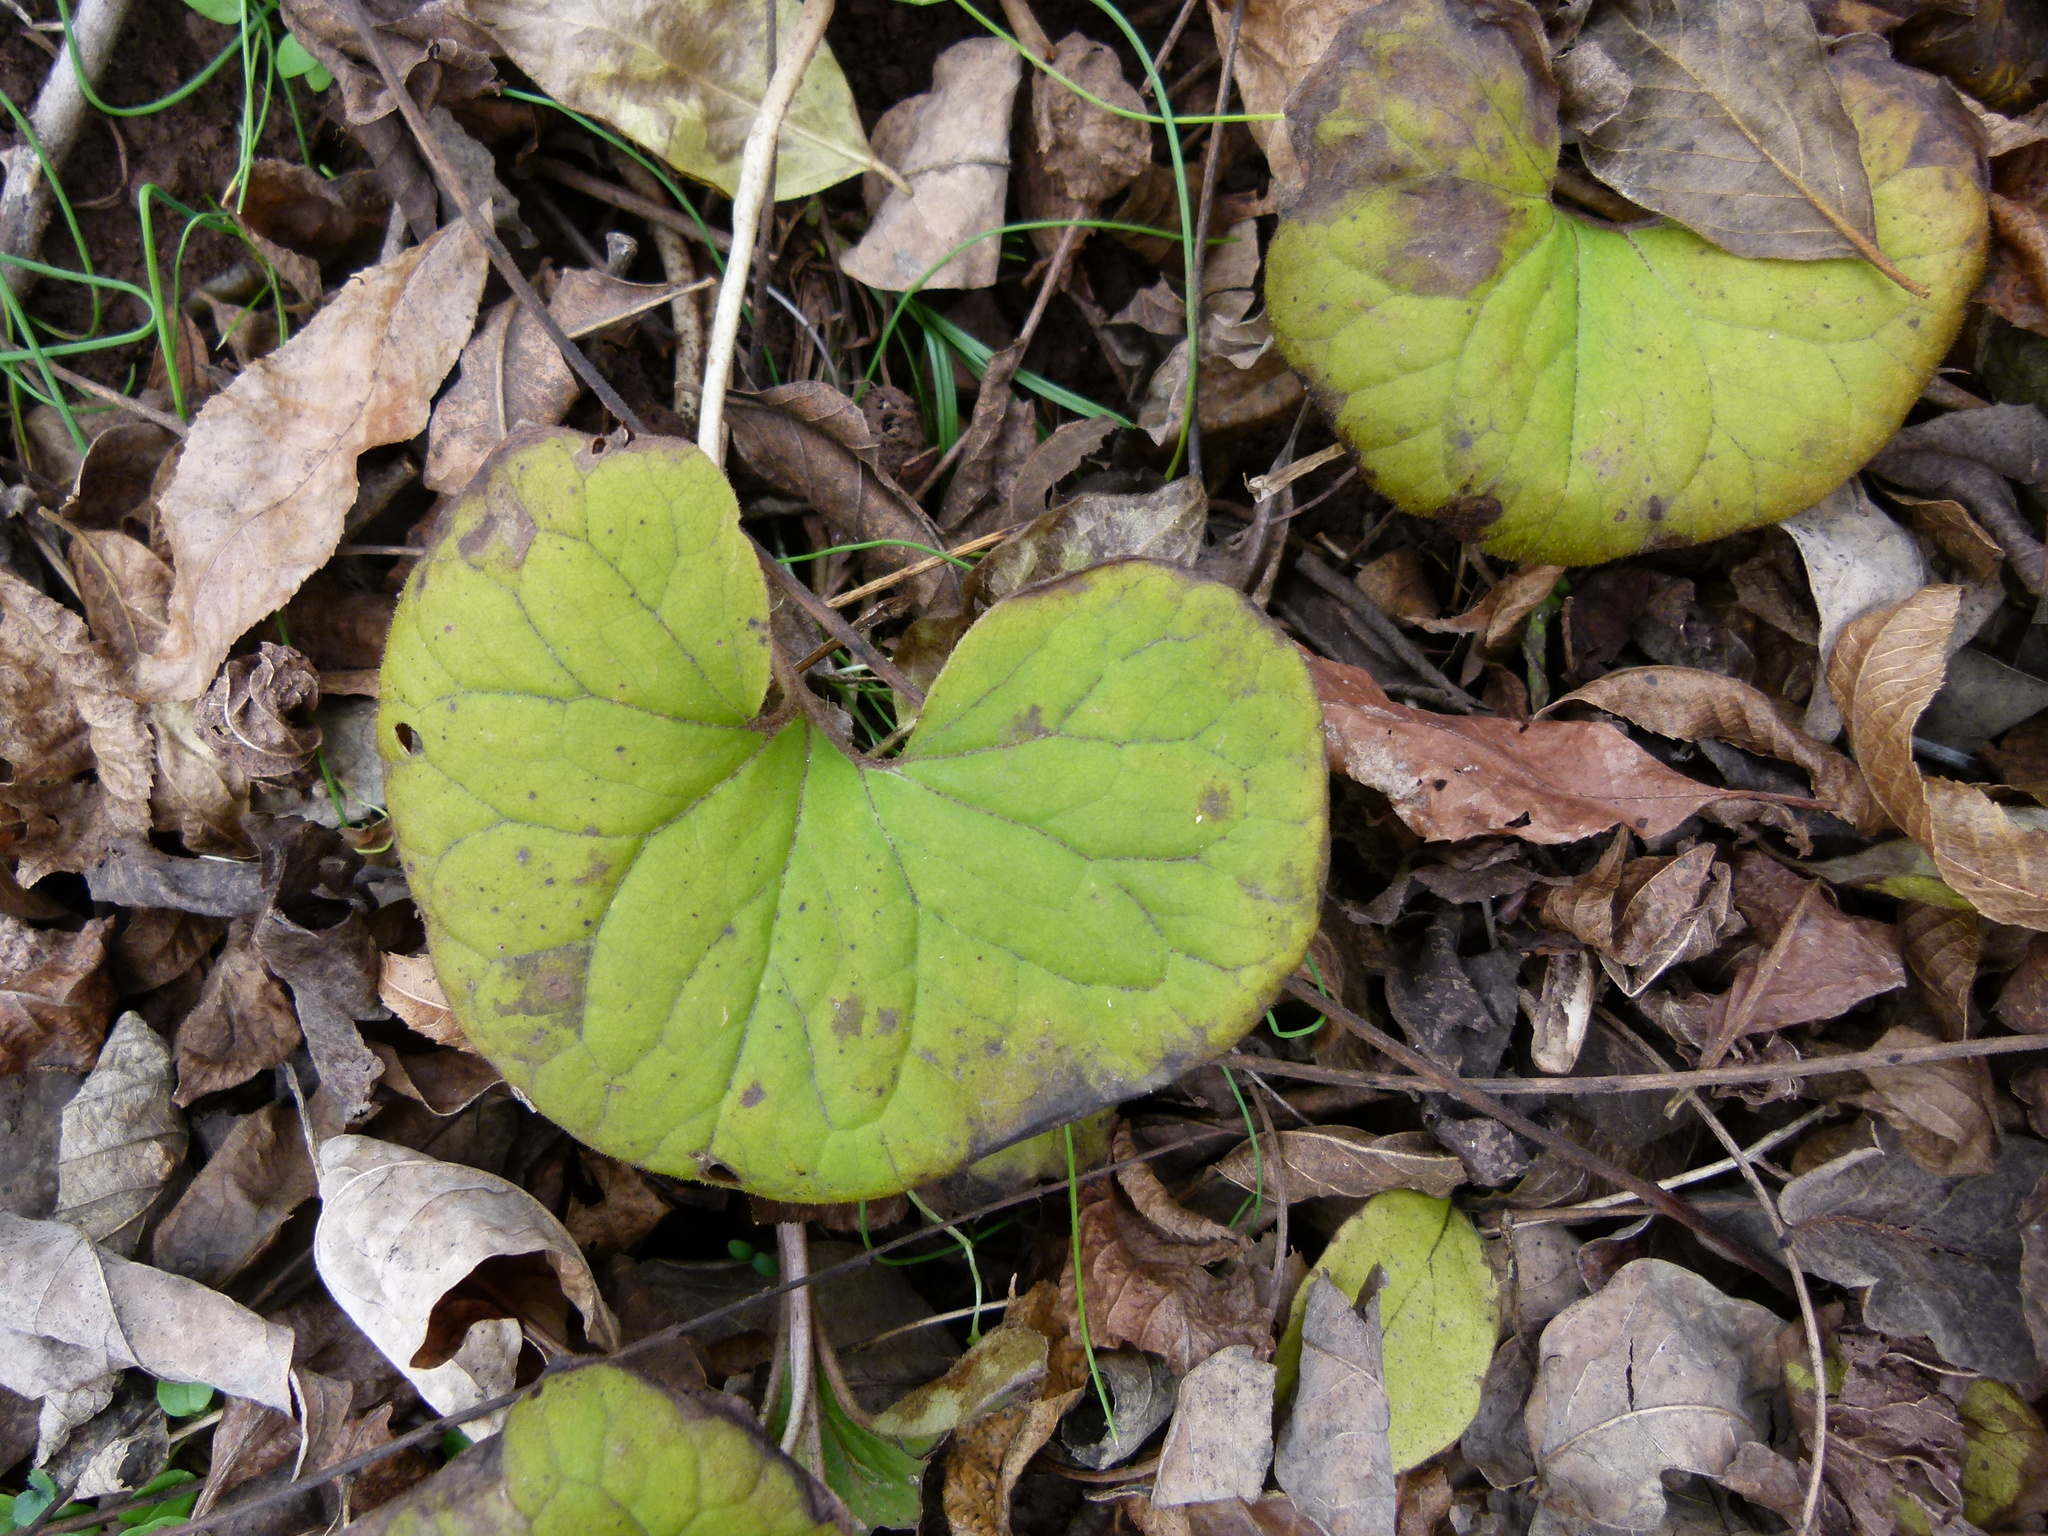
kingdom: Plantae
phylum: Tracheophyta
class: Magnoliopsida
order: Piperales
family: Aristolochiaceae
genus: Asarum
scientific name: Asarum canadense
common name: Wild ginger
